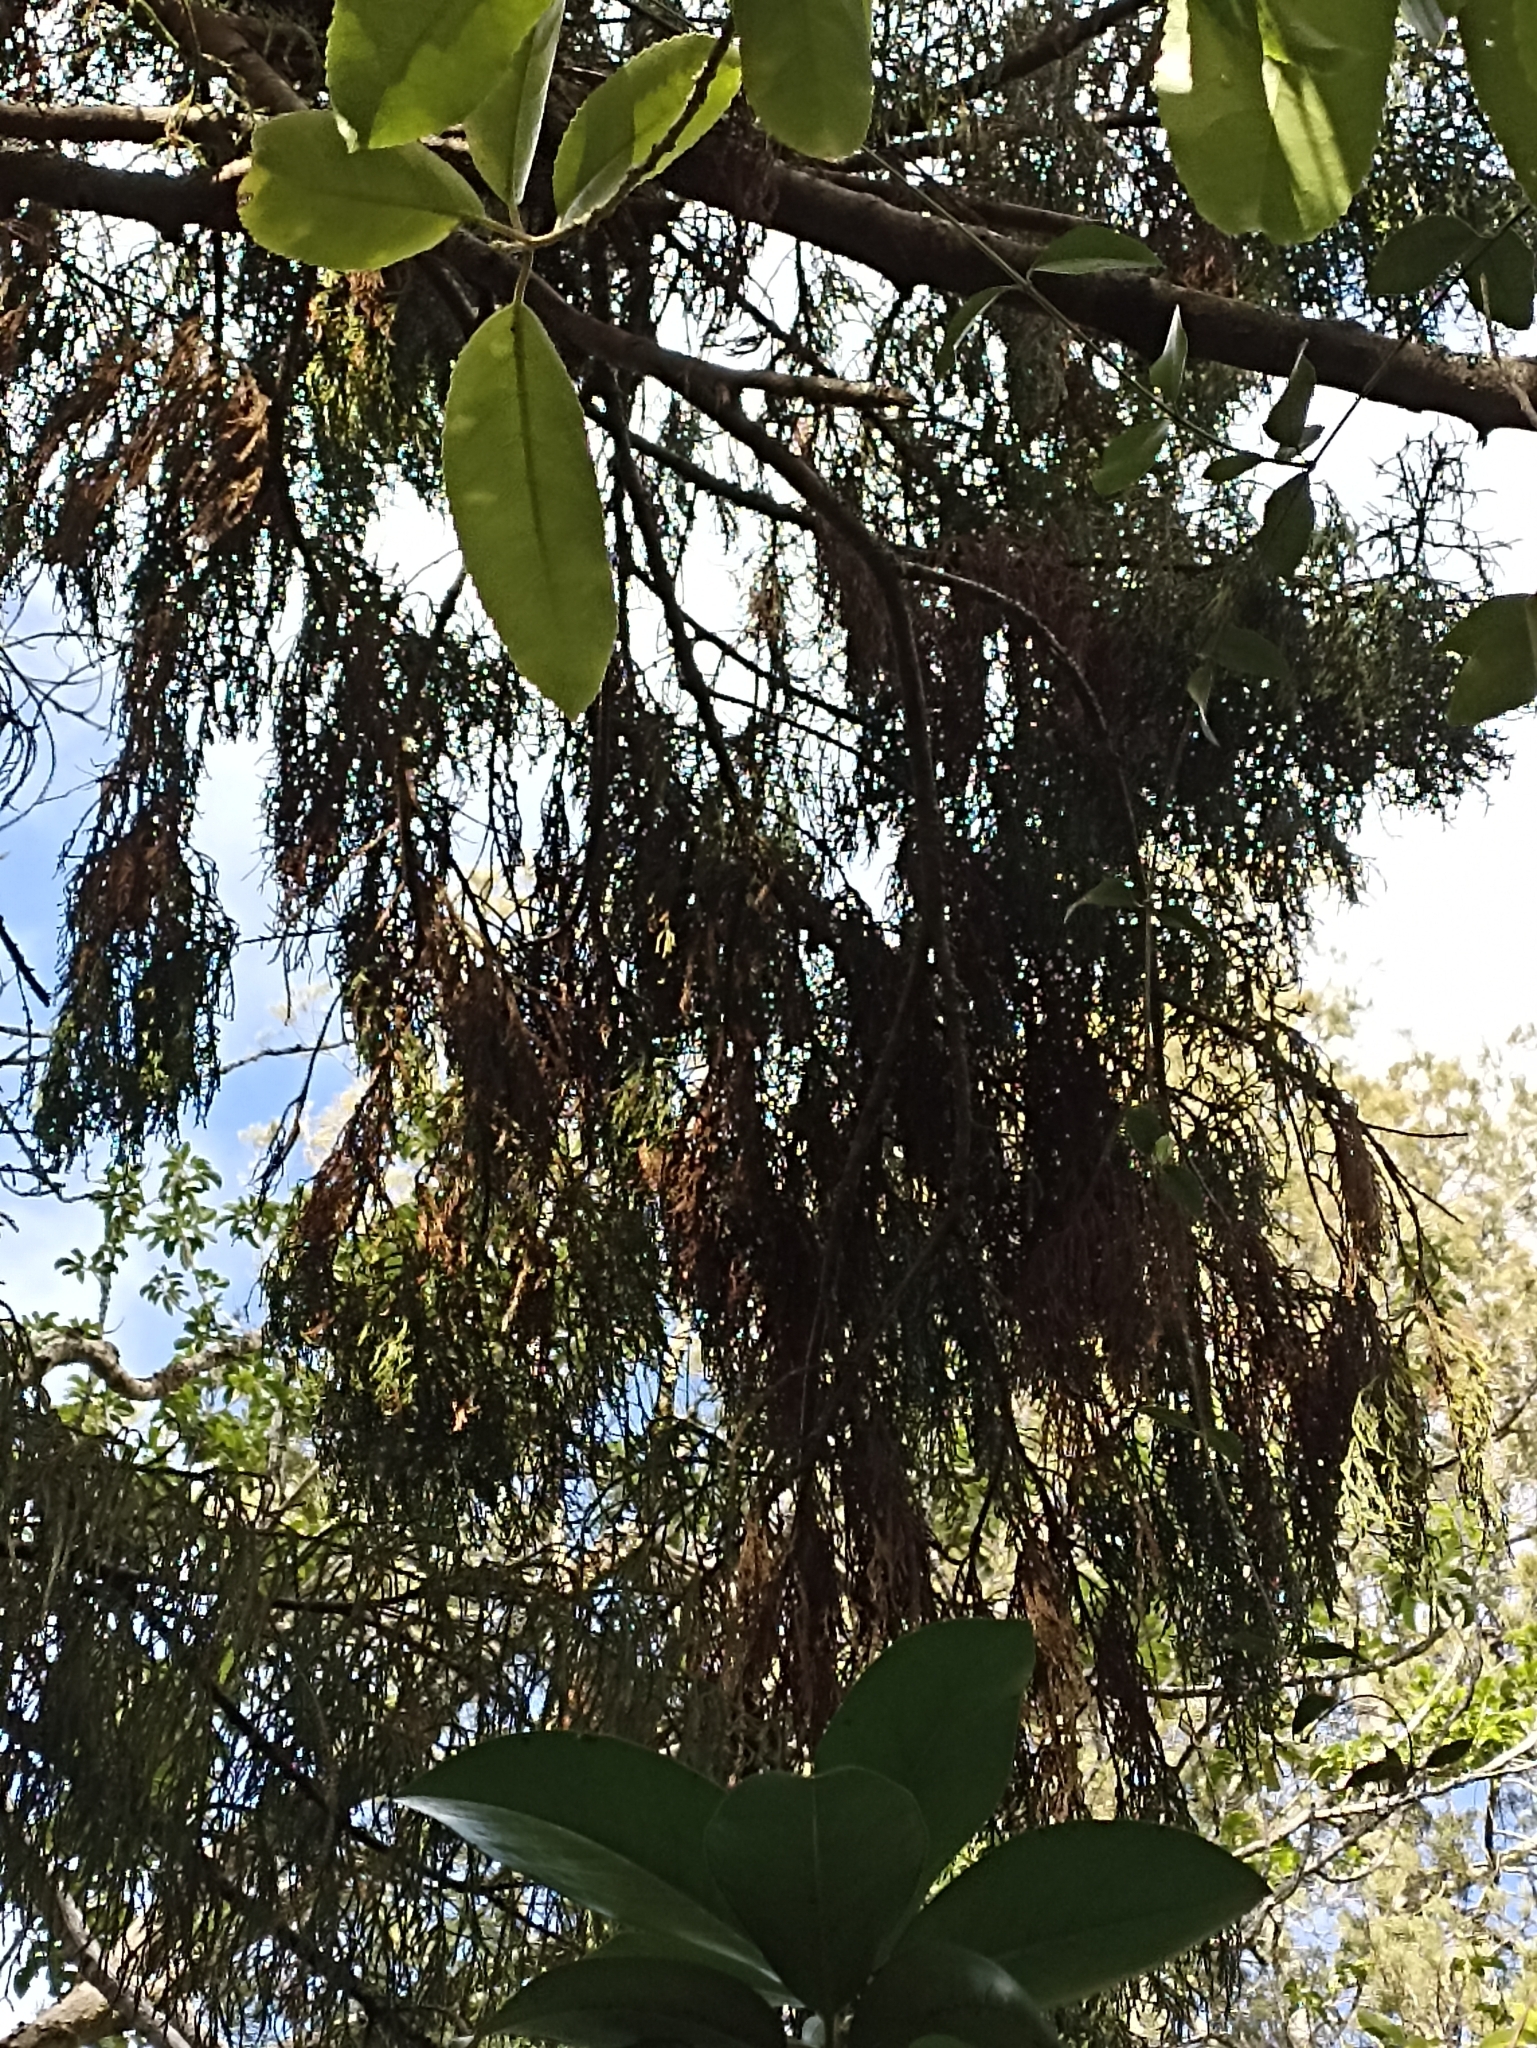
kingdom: Plantae
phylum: Tracheophyta
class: Pinopsida
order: Pinales
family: Podocarpaceae
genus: Dacrydium
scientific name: Dacrydium cupressinum
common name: Red pine
